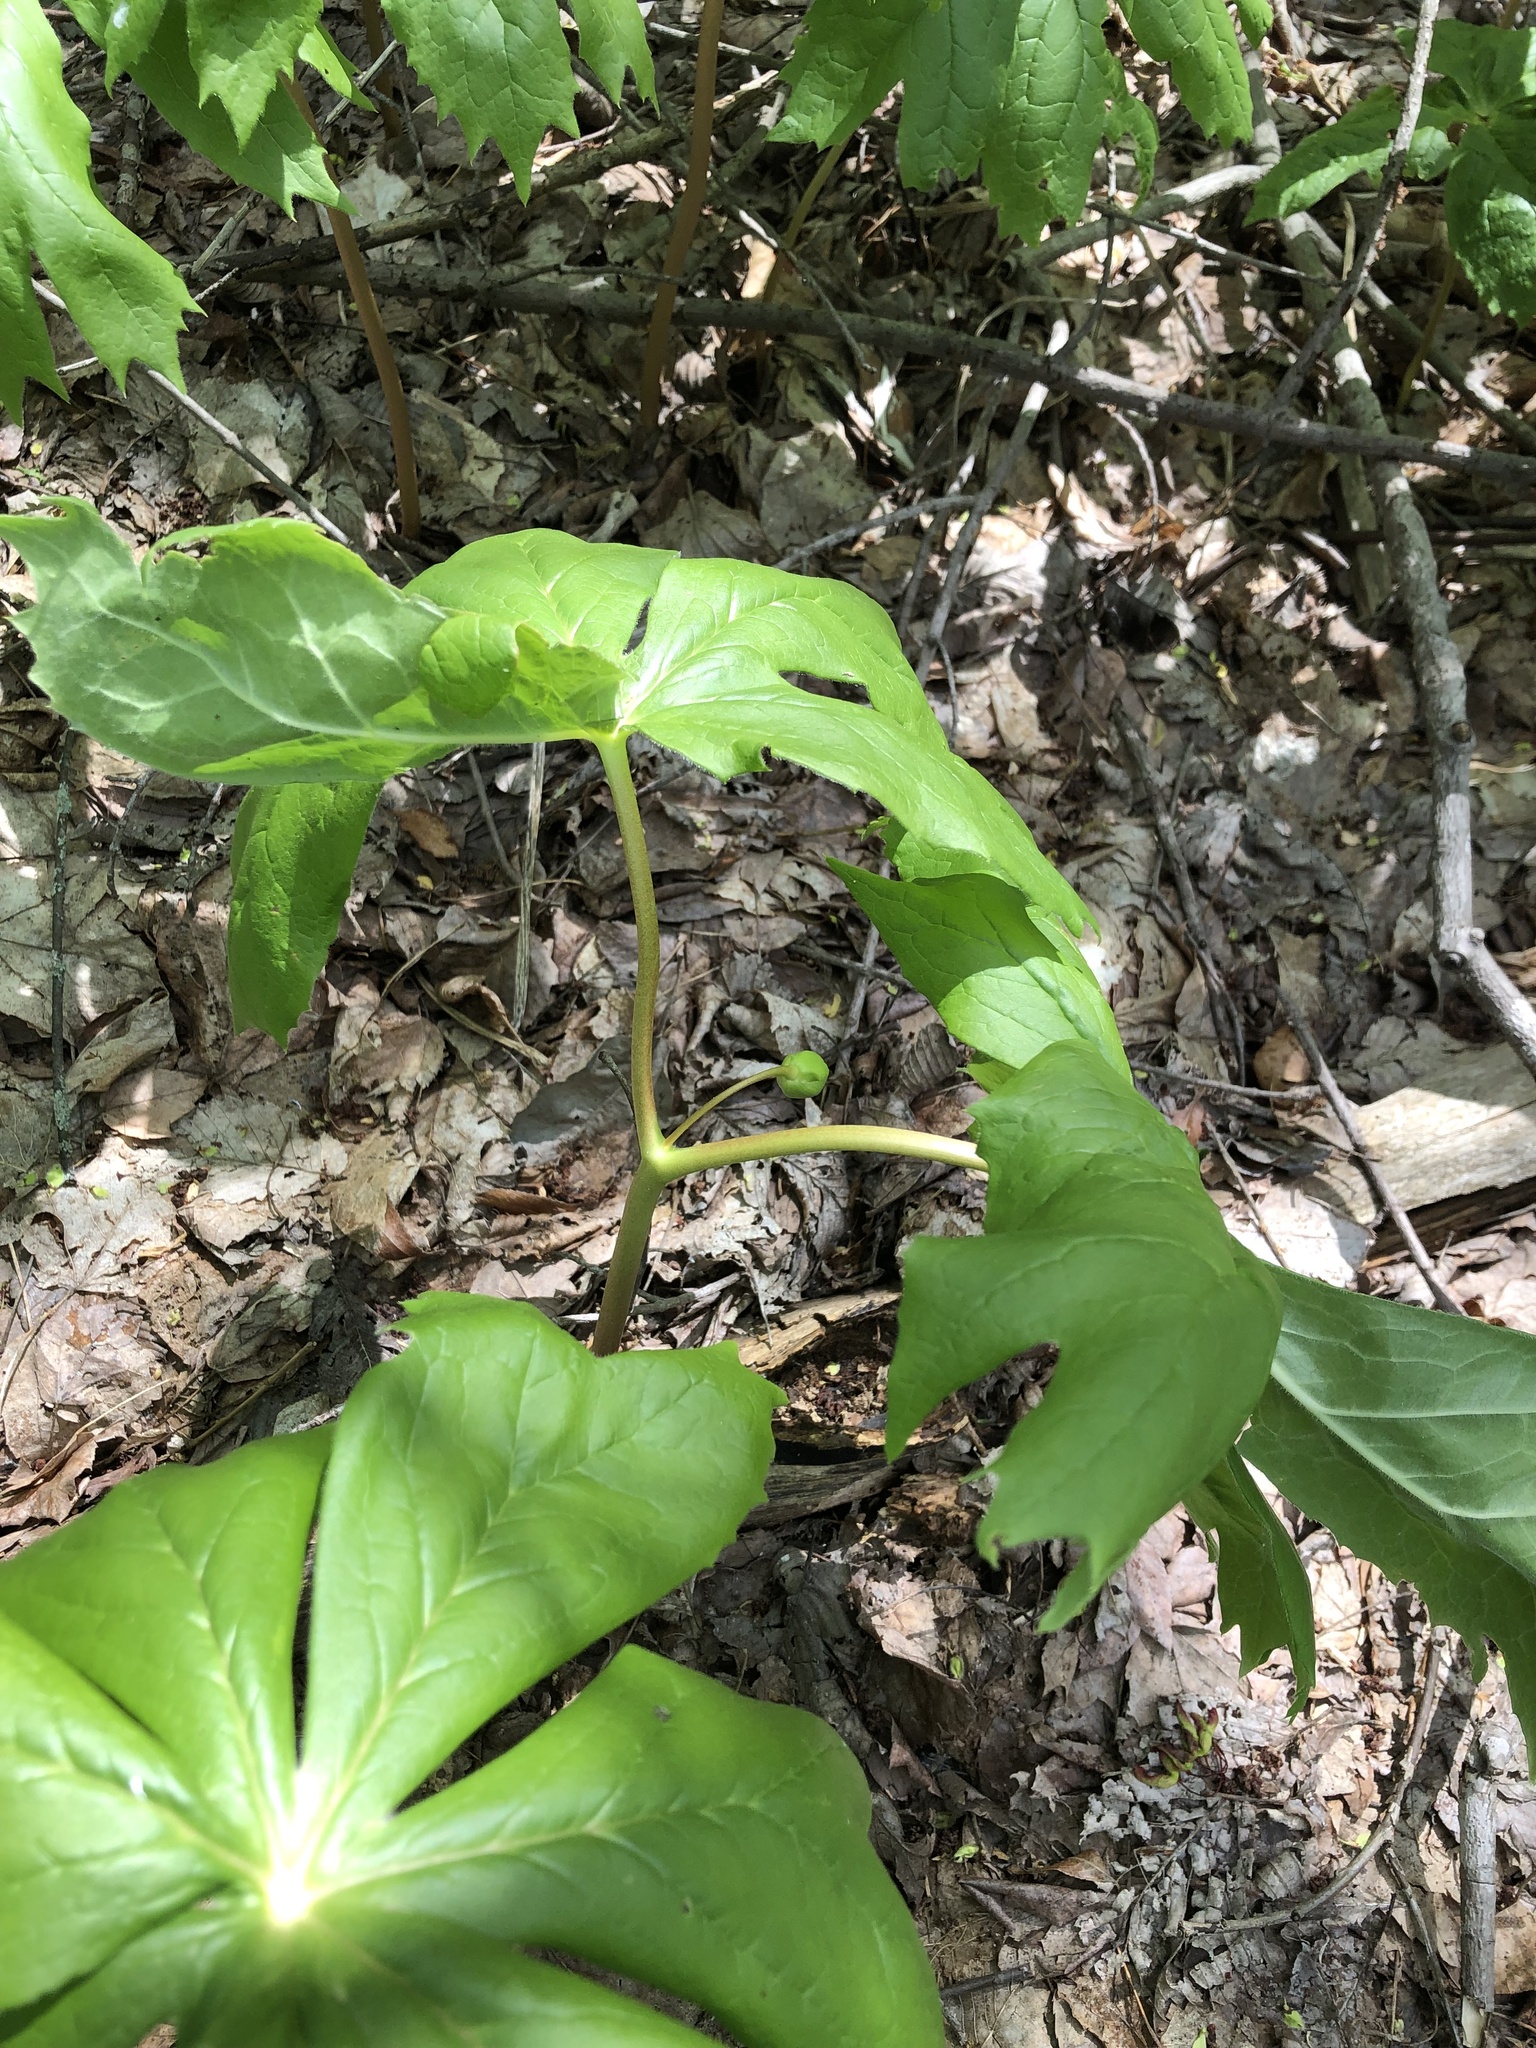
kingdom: Plantae
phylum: Tracheophyta
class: Magnoliopsida
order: Ranunculales
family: Berberidaceae
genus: Podophyllum
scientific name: Podophyllum peltatum
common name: Wild mandrake
